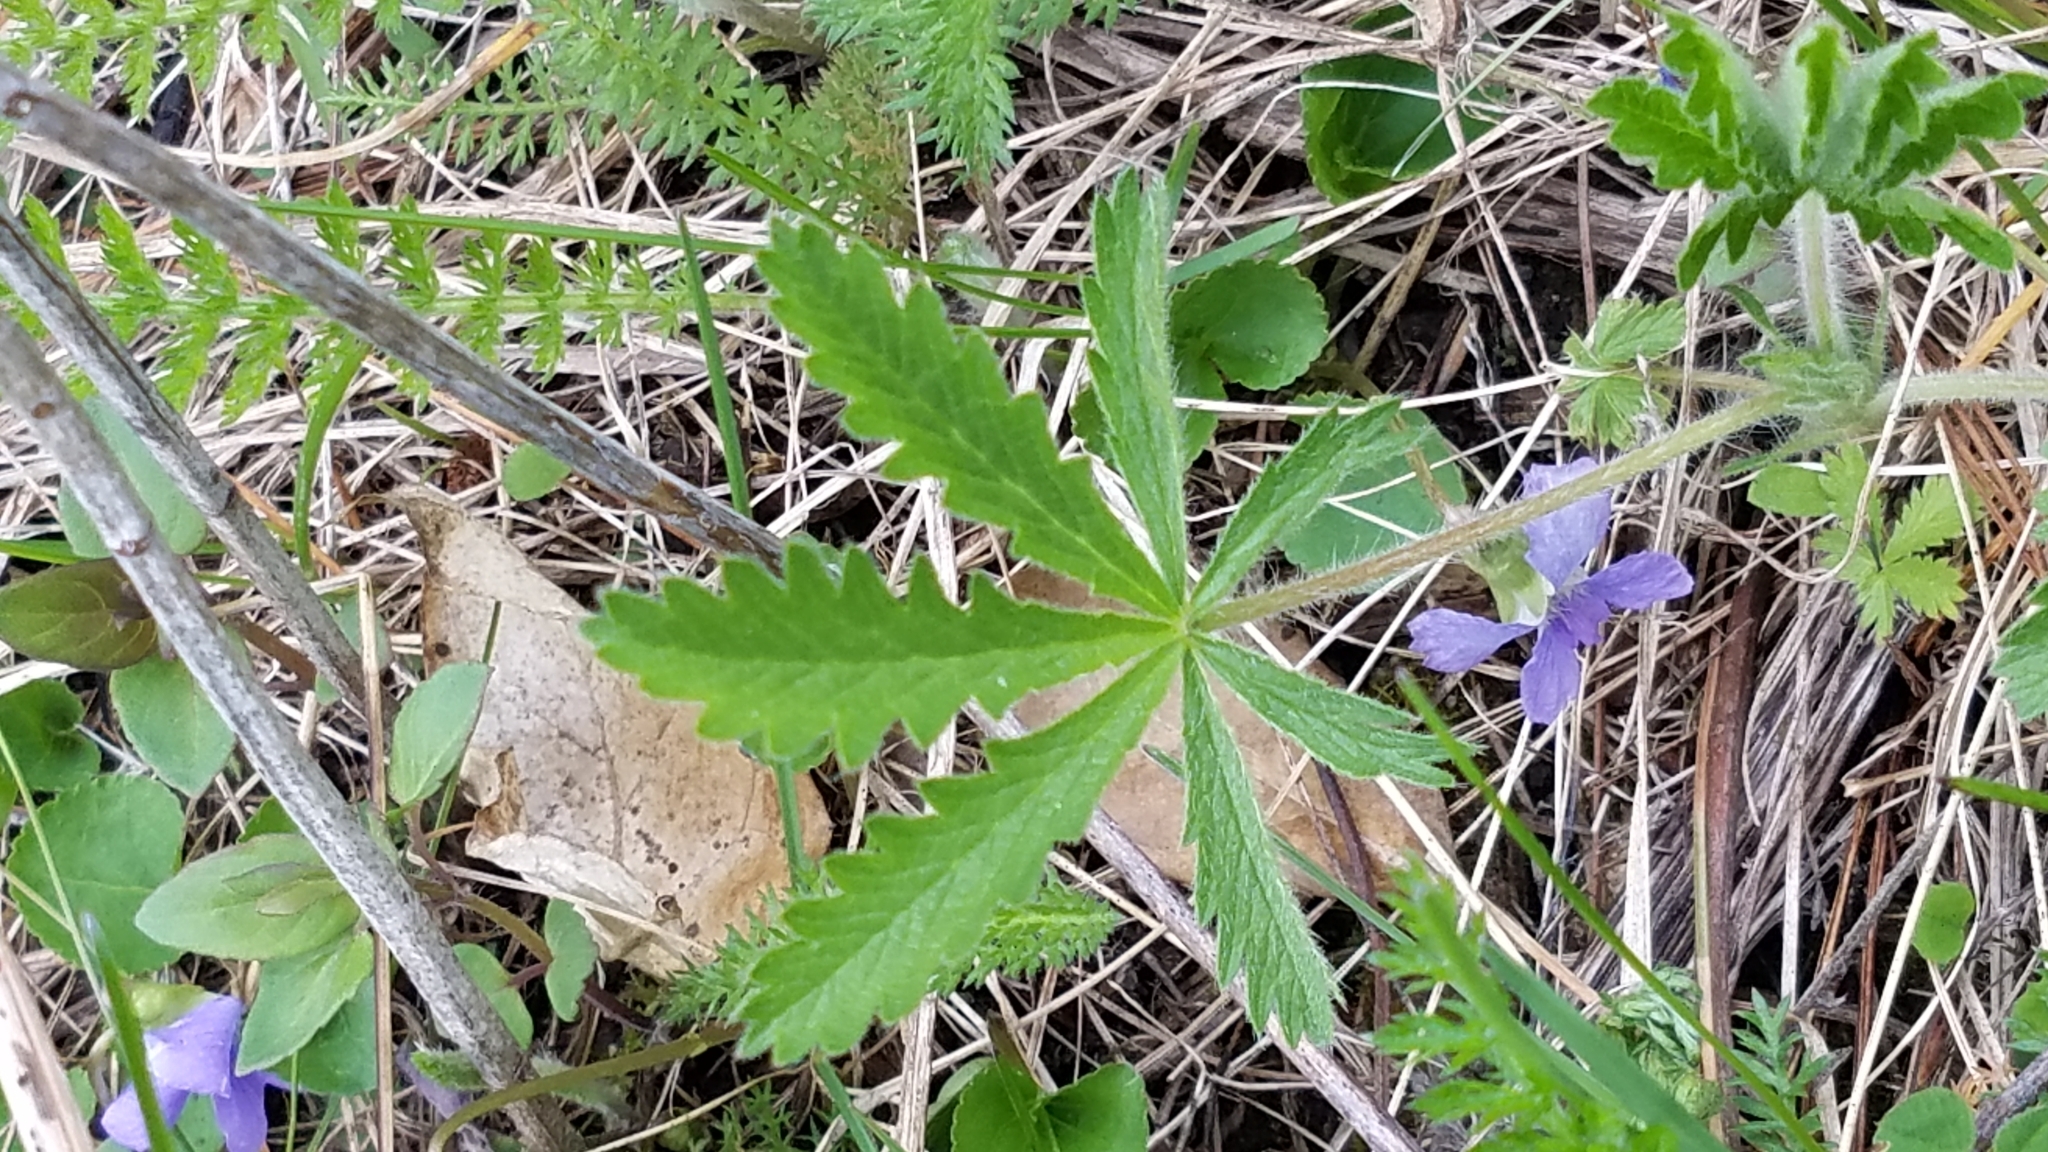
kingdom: Plantae
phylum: Tracheophyta
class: Magnoliopsida
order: Rosales
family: Rosaceae
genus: Potentilla
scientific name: Potentilla recta
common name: Sulphur cinquefoil
